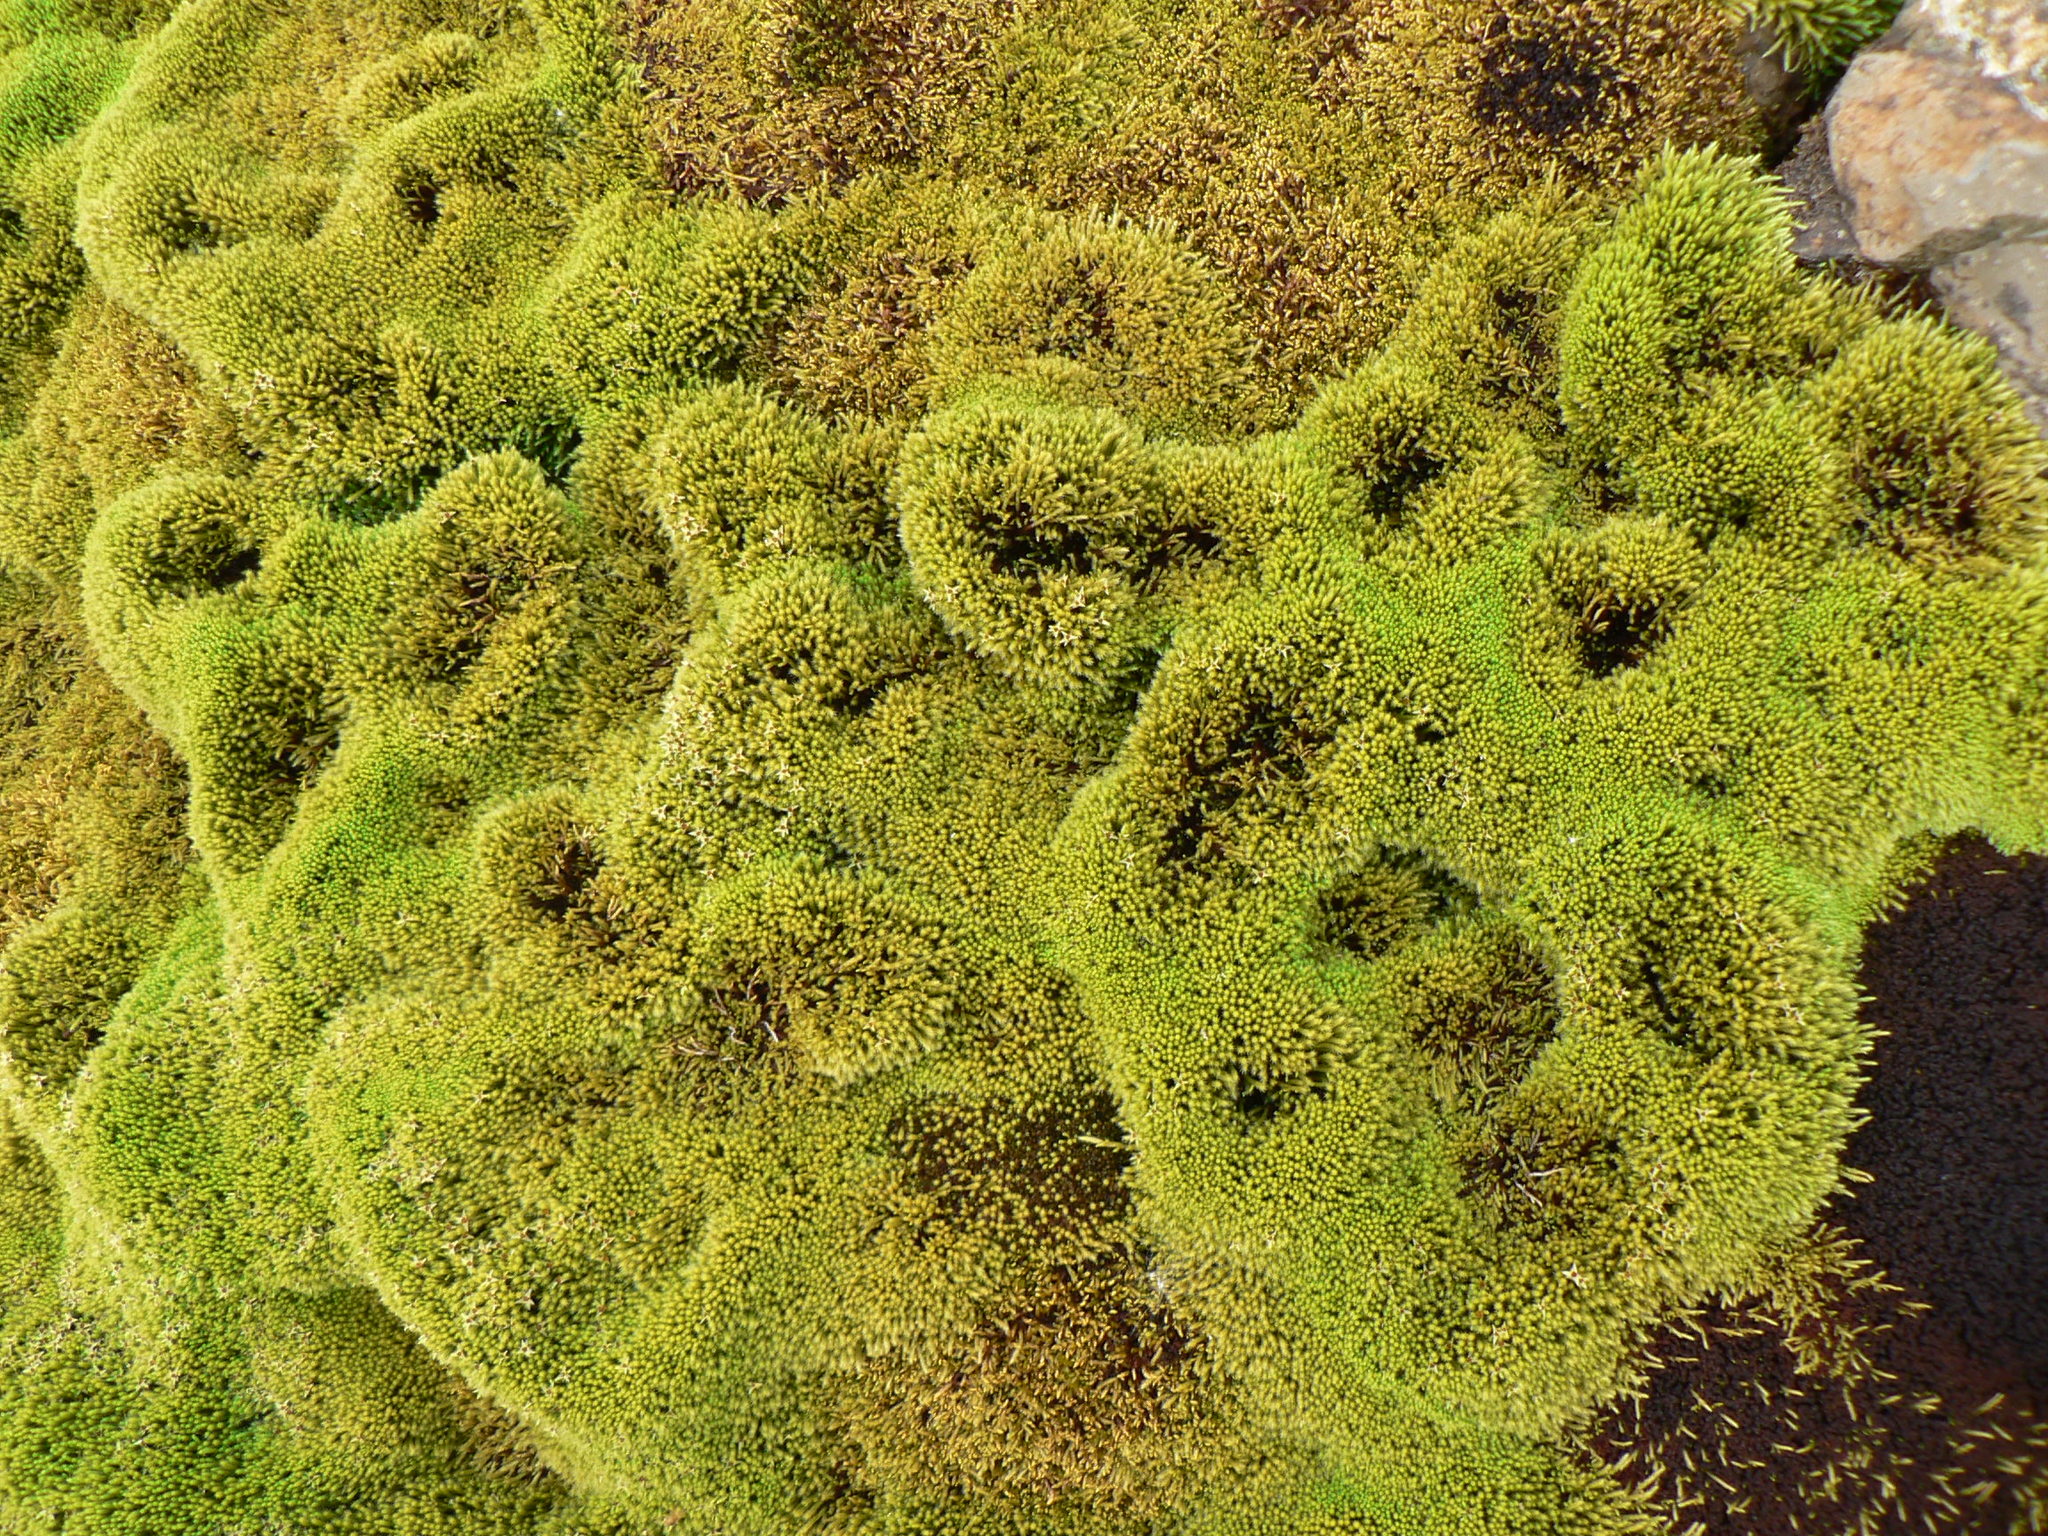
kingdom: Plantae
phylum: Bryophyta
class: Bryopsida
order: Bartramiales
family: Bartramiaceae
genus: Philonotis
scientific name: Philonotis fontana
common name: Fountain apple-moss
